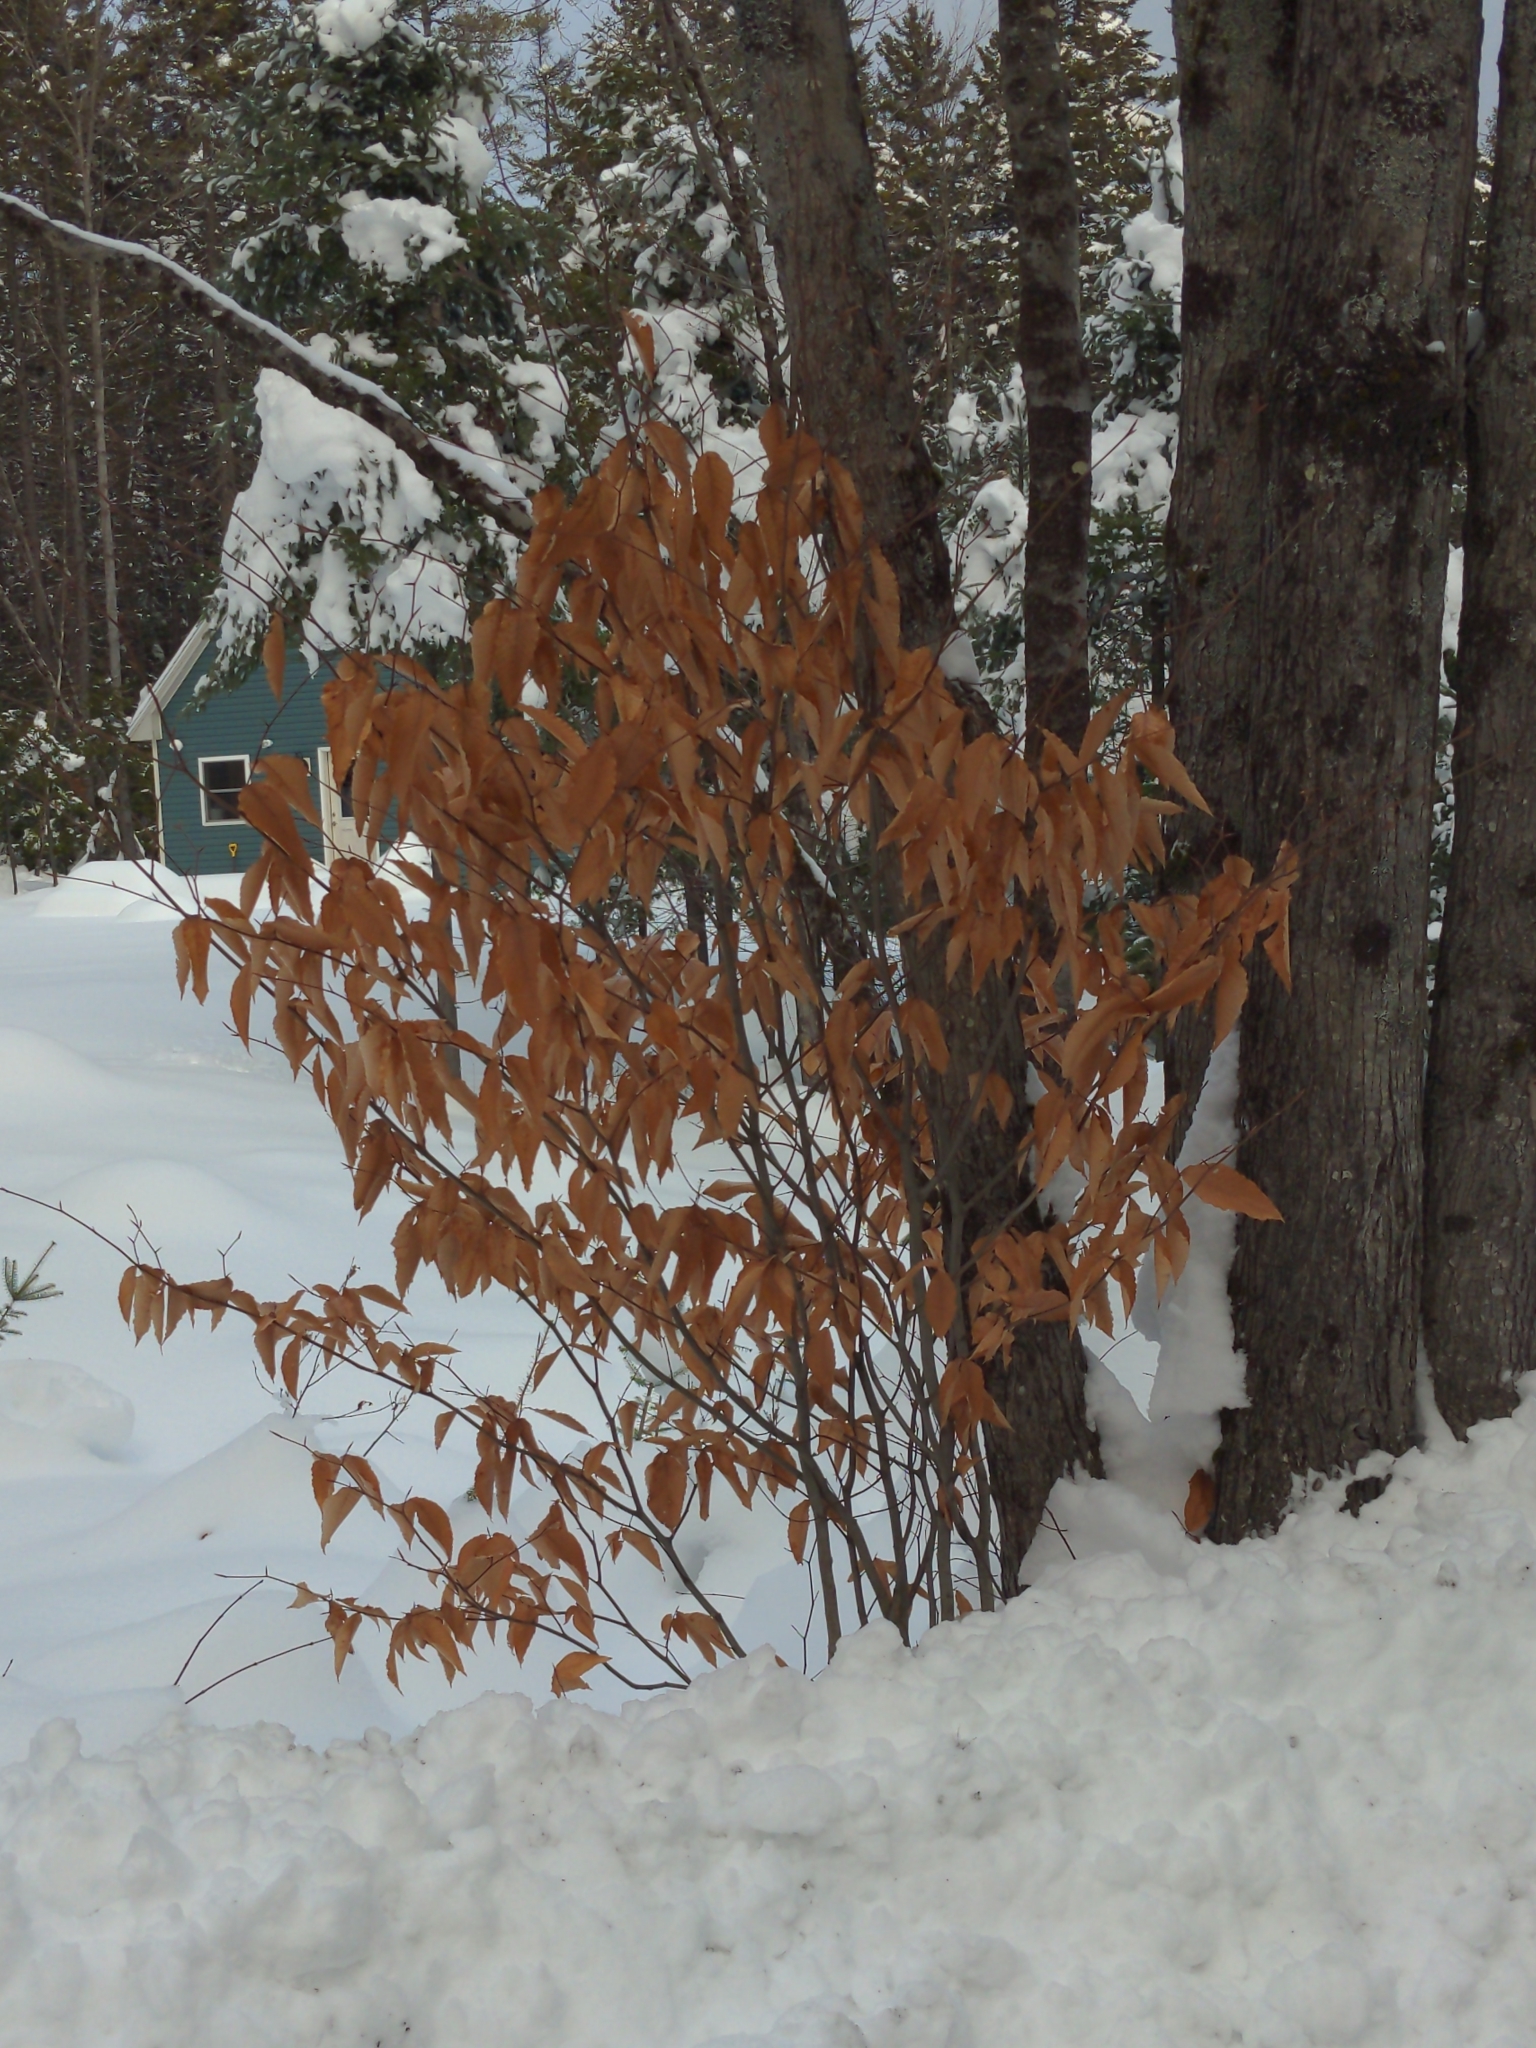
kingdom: Plantae
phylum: Tracheophyta
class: Magnoliopsida
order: Fagales
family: Fagaceae
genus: Fagus
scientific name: Fagus grandifolia
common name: American beech
